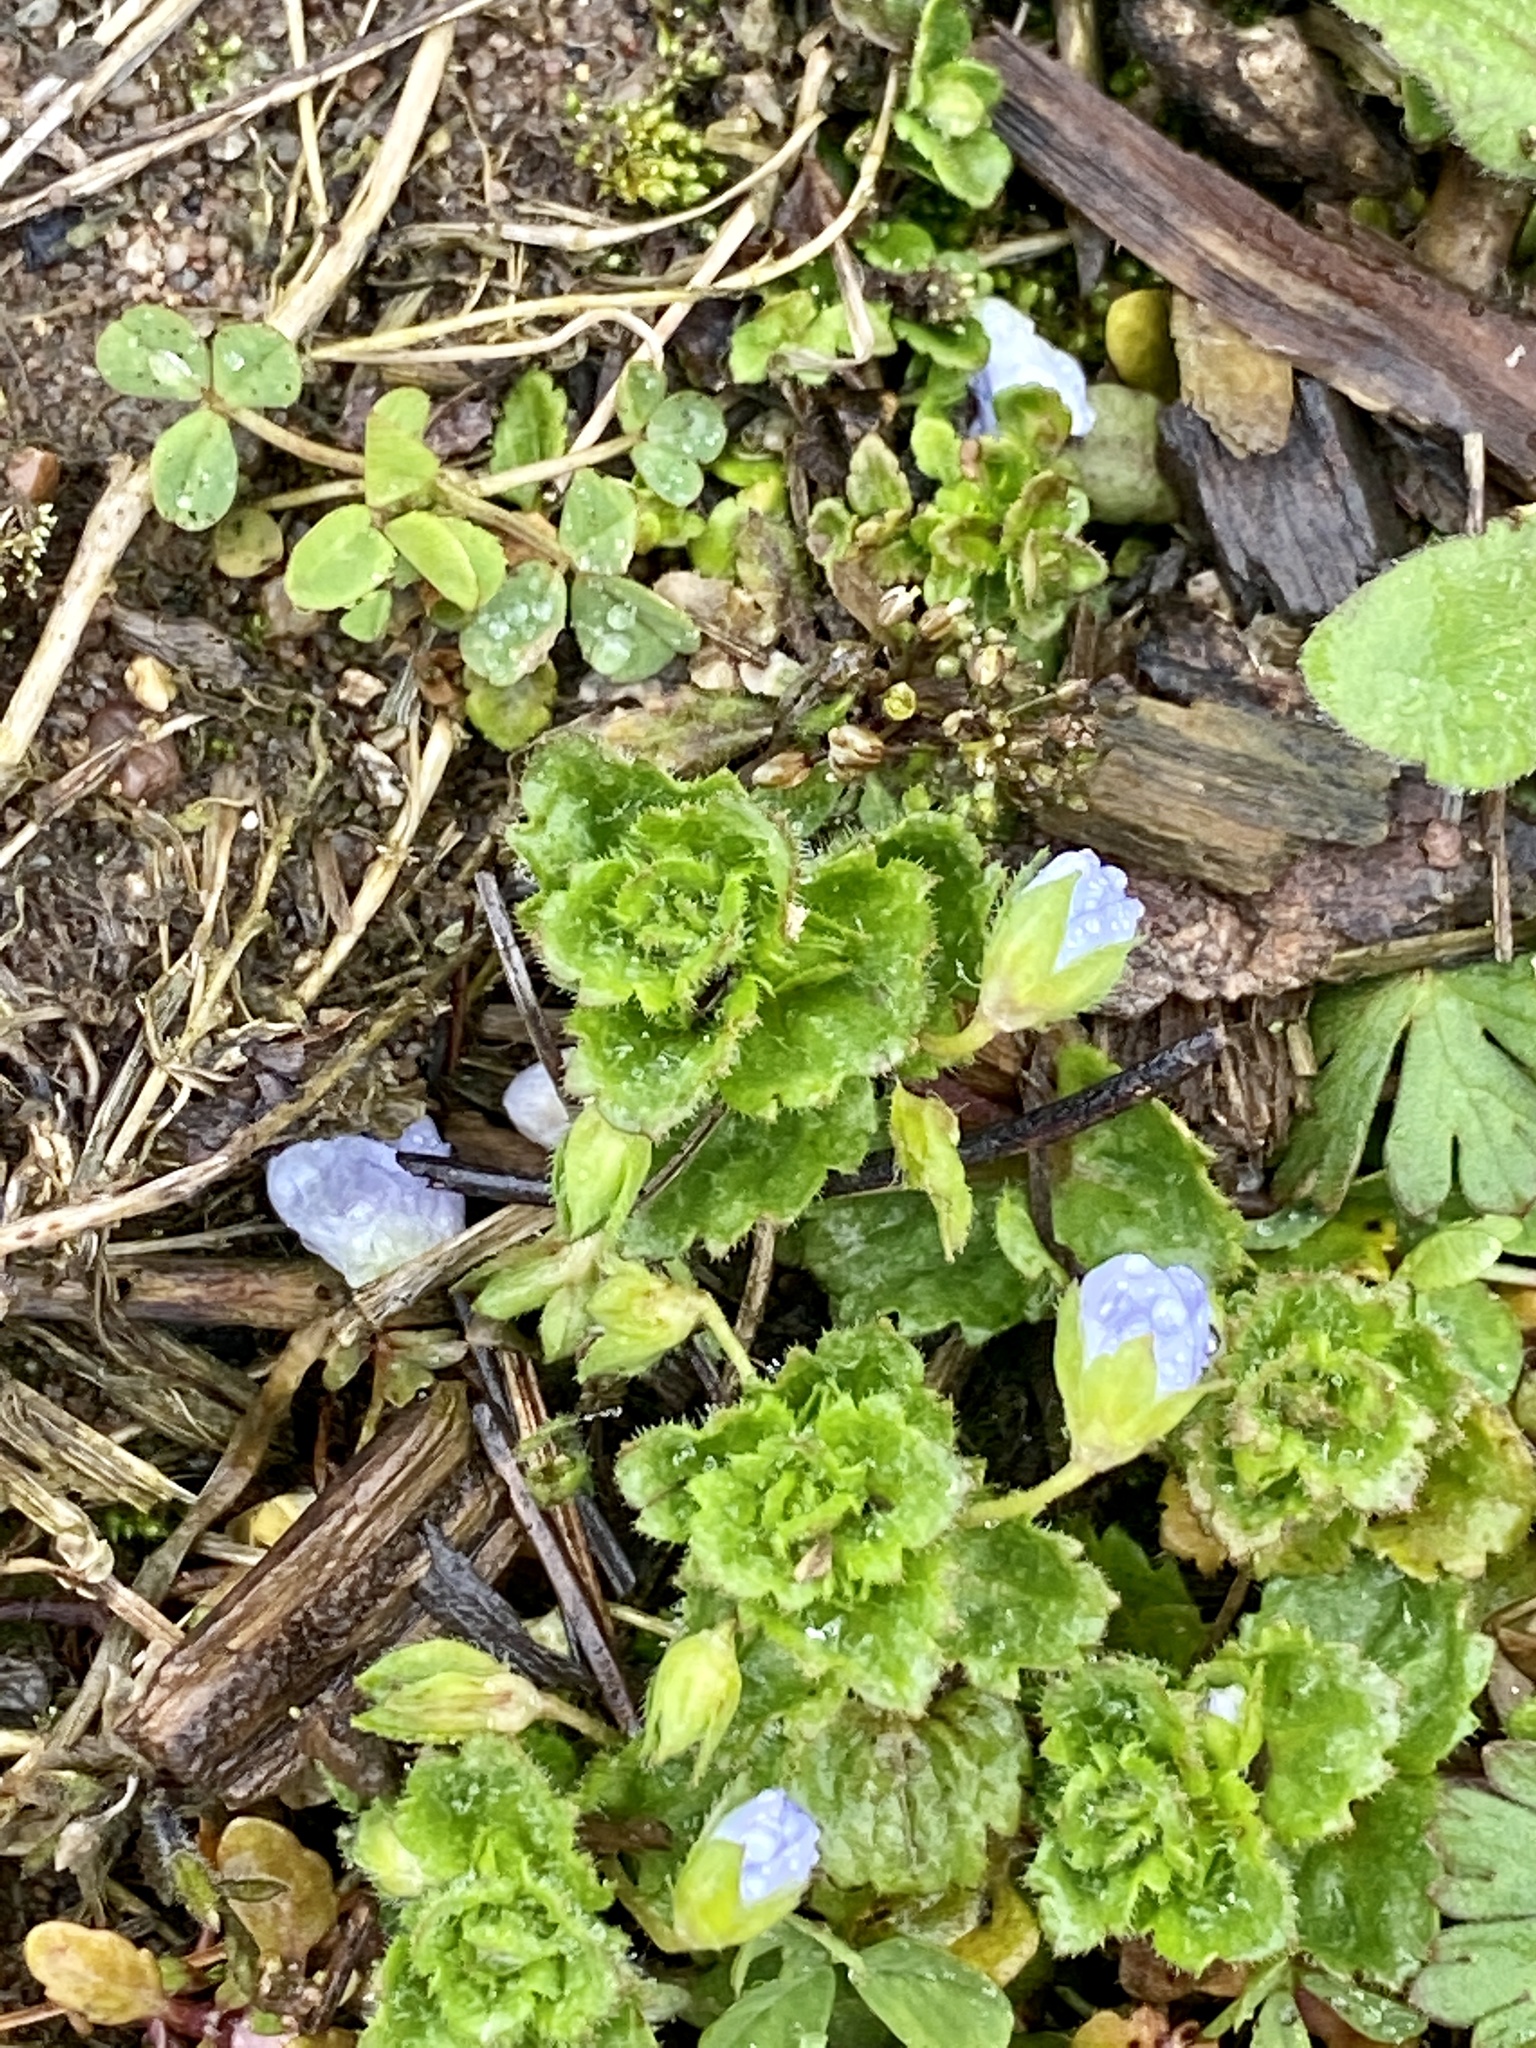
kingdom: Plantae
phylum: Tracheophyta
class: Magnoliopsida
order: Lamiales
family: Plantaginaceae
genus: Veronica
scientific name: Veronica persica
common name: Common field-speedwell
